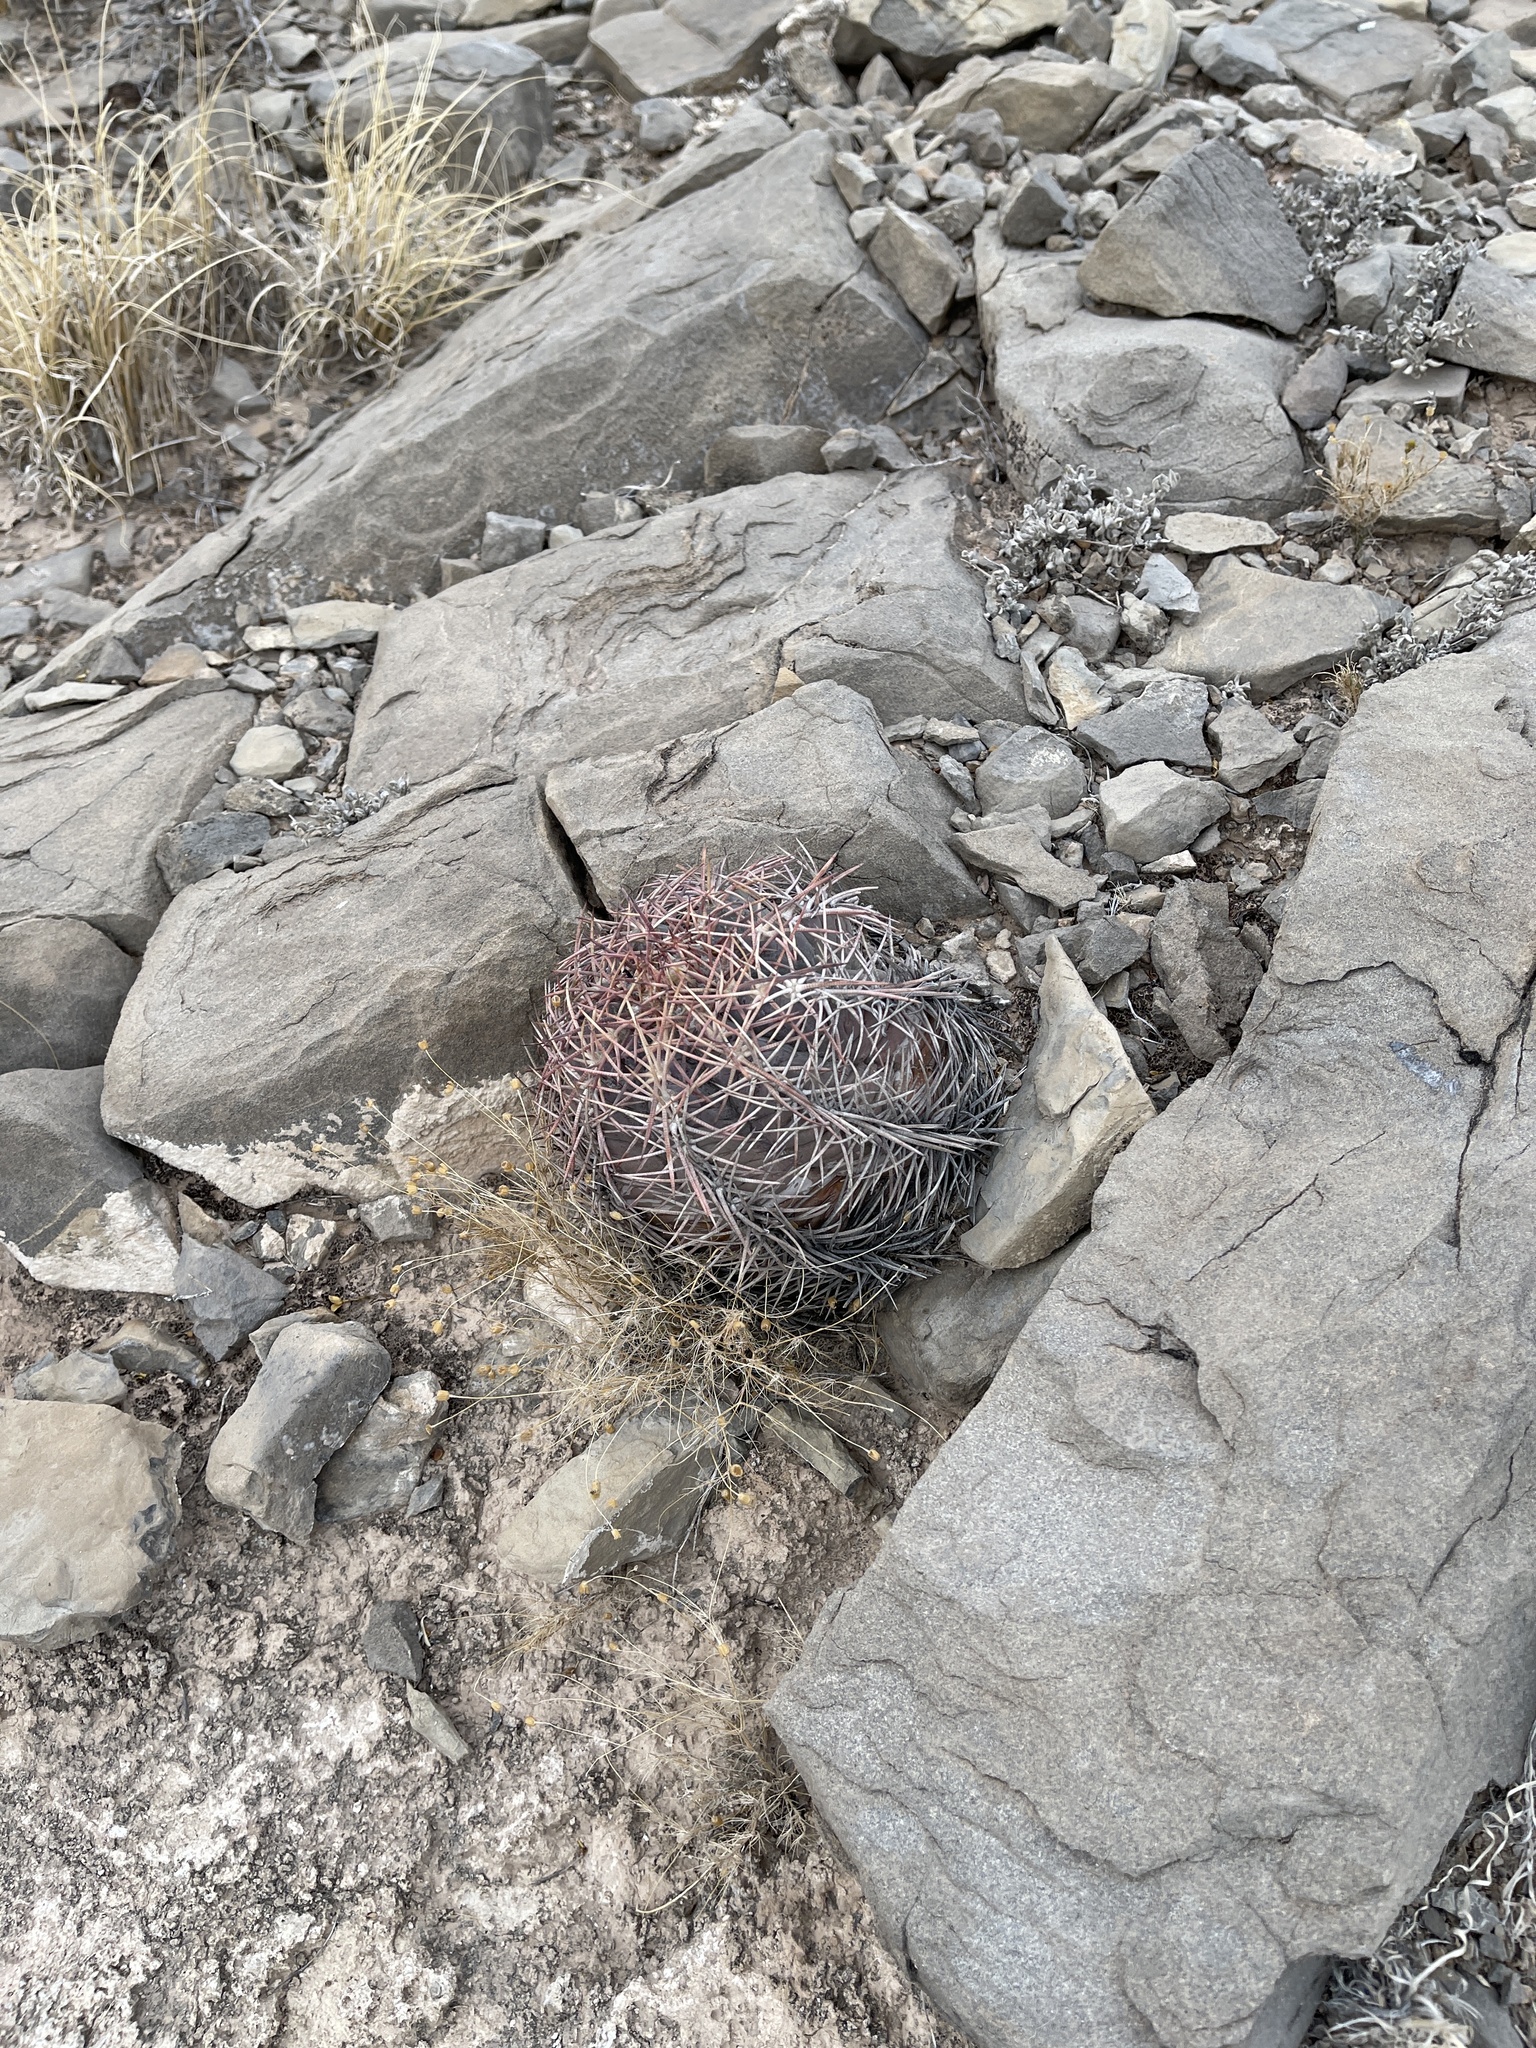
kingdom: Plantae
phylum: Tracheophyta
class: Magnoliopsida
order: Caryophyllales
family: Cactaceae
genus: Echinocactus
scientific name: Echinocactus horizonthalonius
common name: Devilshead
